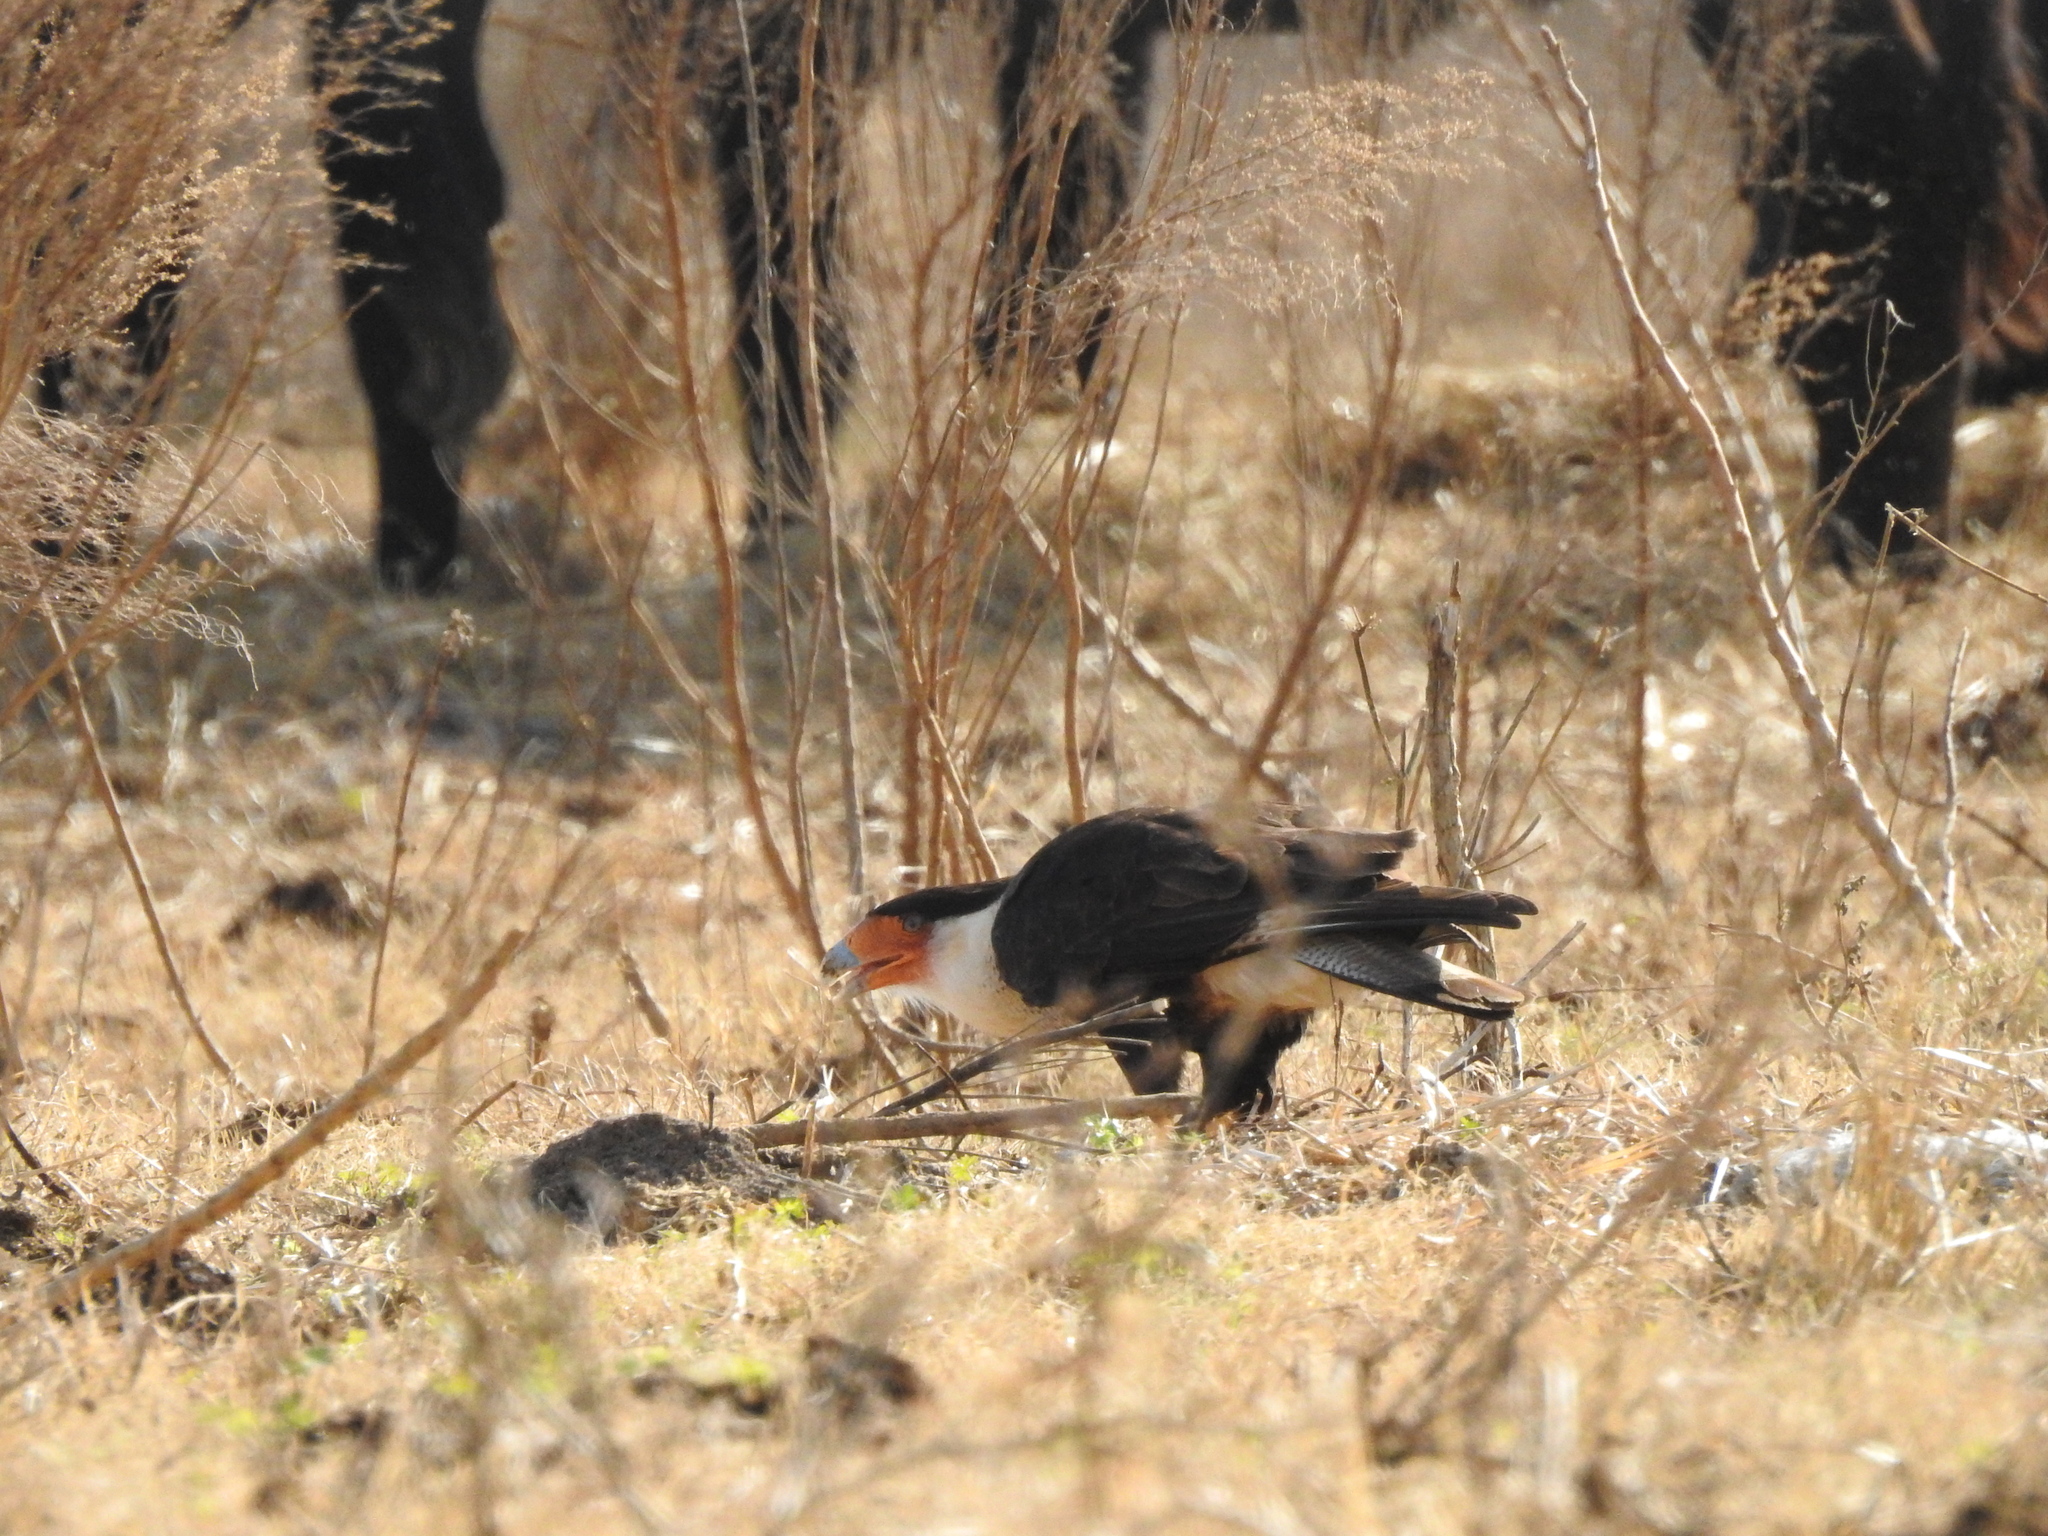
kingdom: Animalia
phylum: Chordata
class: Aves
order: Falconiformes
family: Falconidae
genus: Caracara
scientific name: Caracara plancus
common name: Southern caracara
